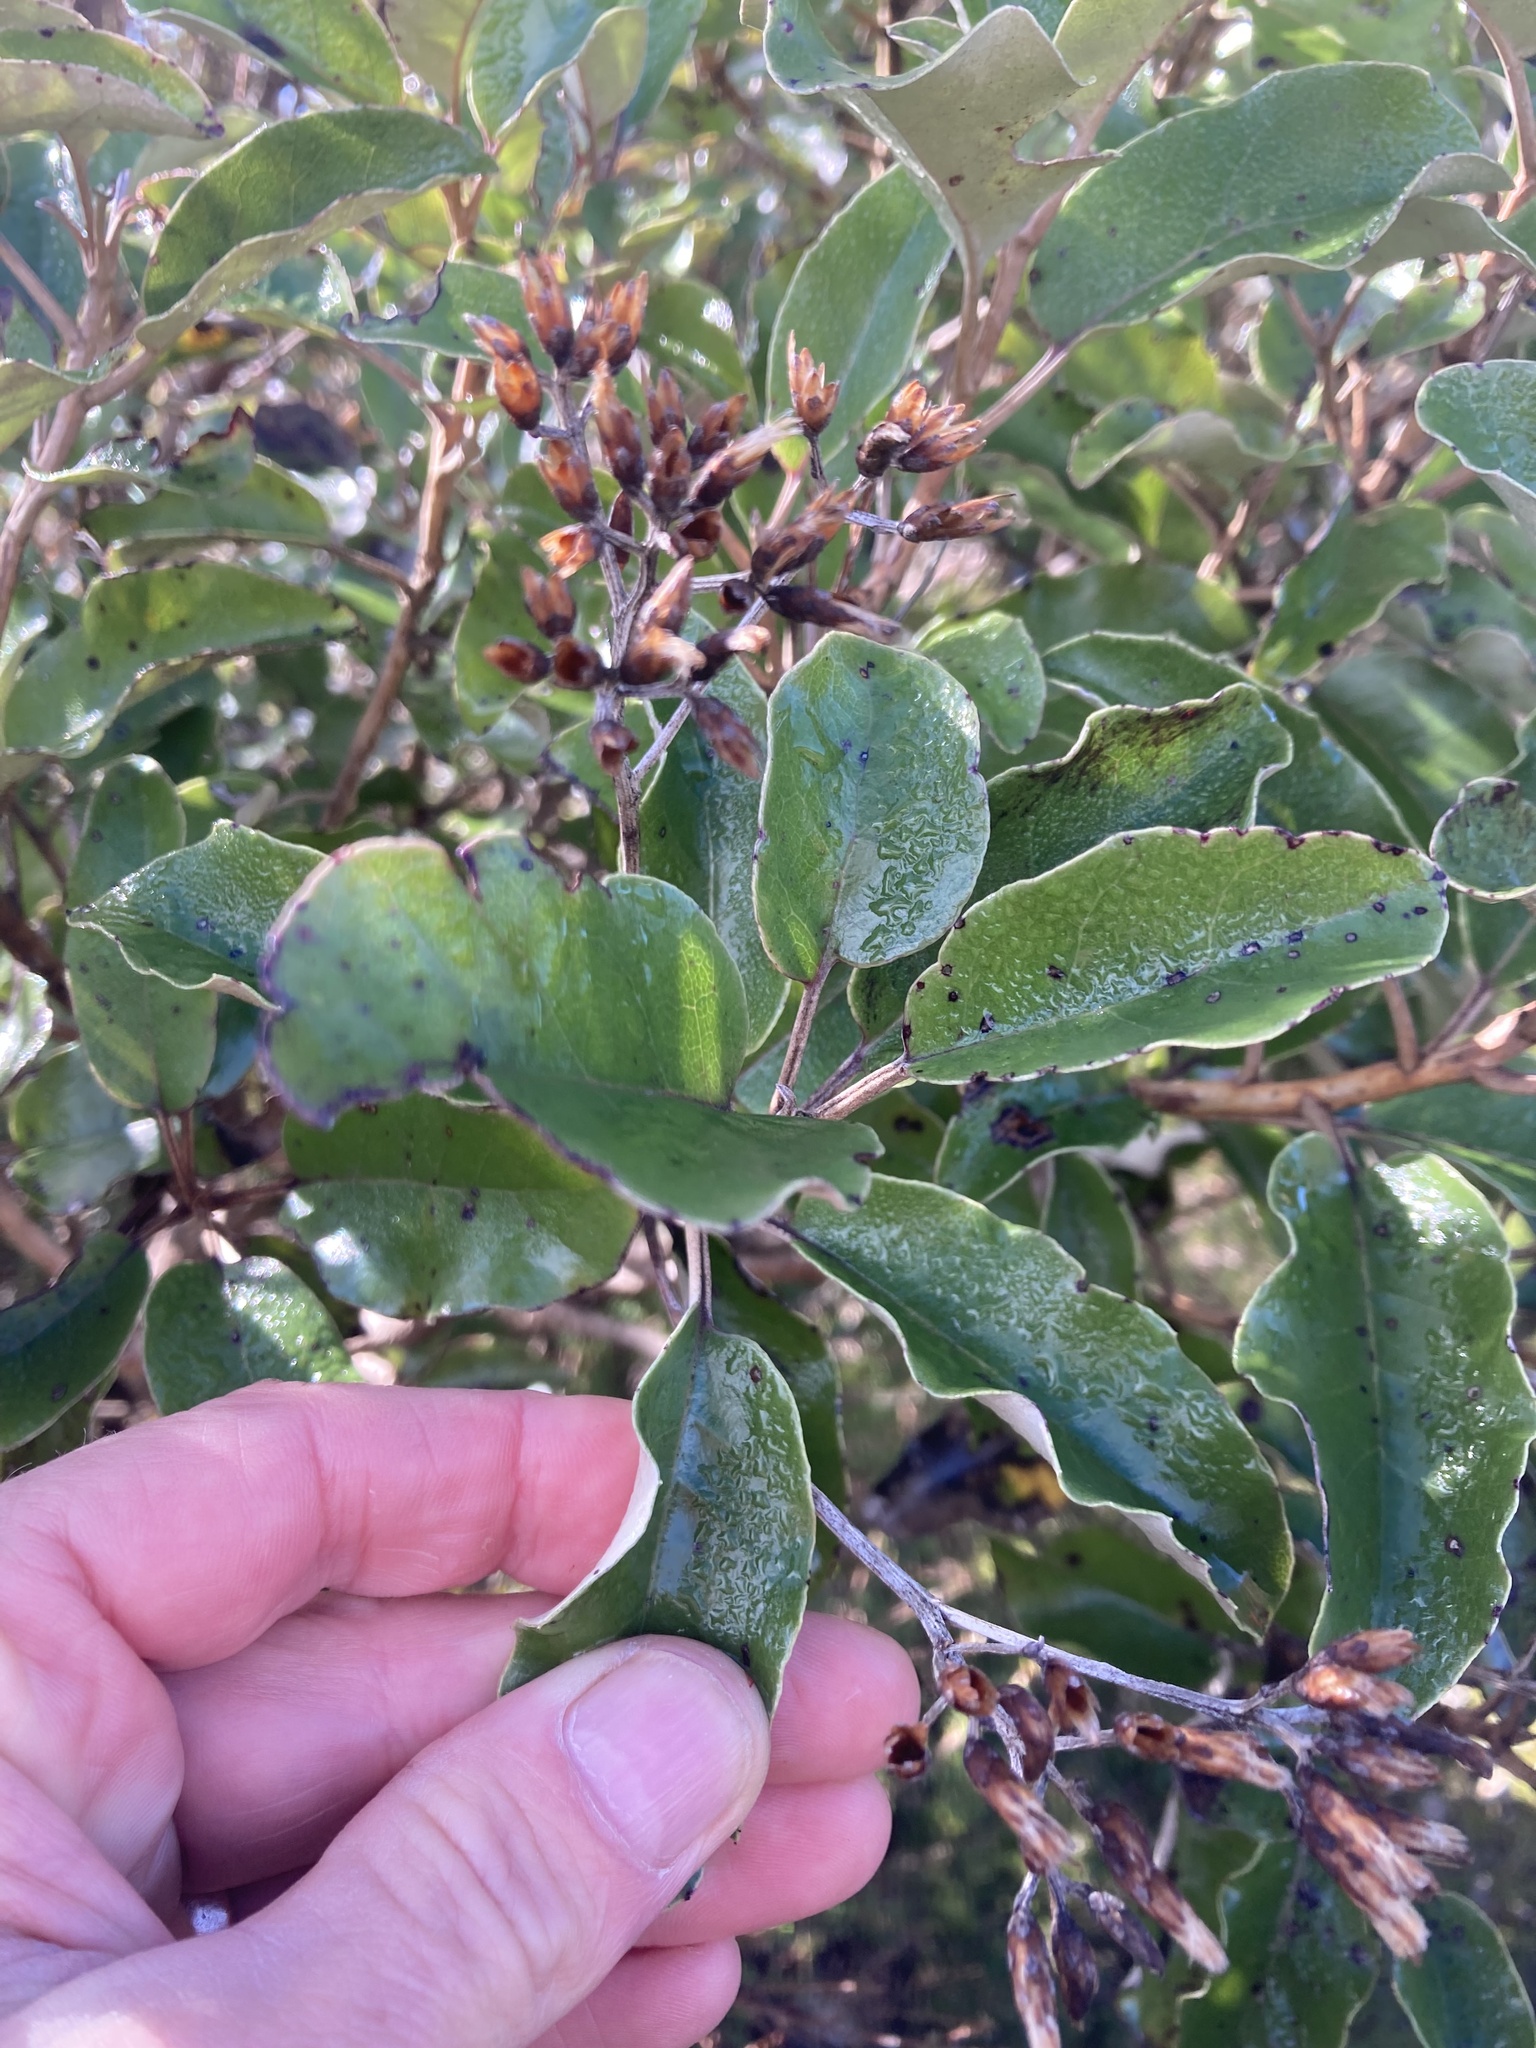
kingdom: Plantae
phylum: Tracheophyta
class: Magnoliopsida
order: Asterales
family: Asteraceae
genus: Olearia
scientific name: Olearia furfuracea
